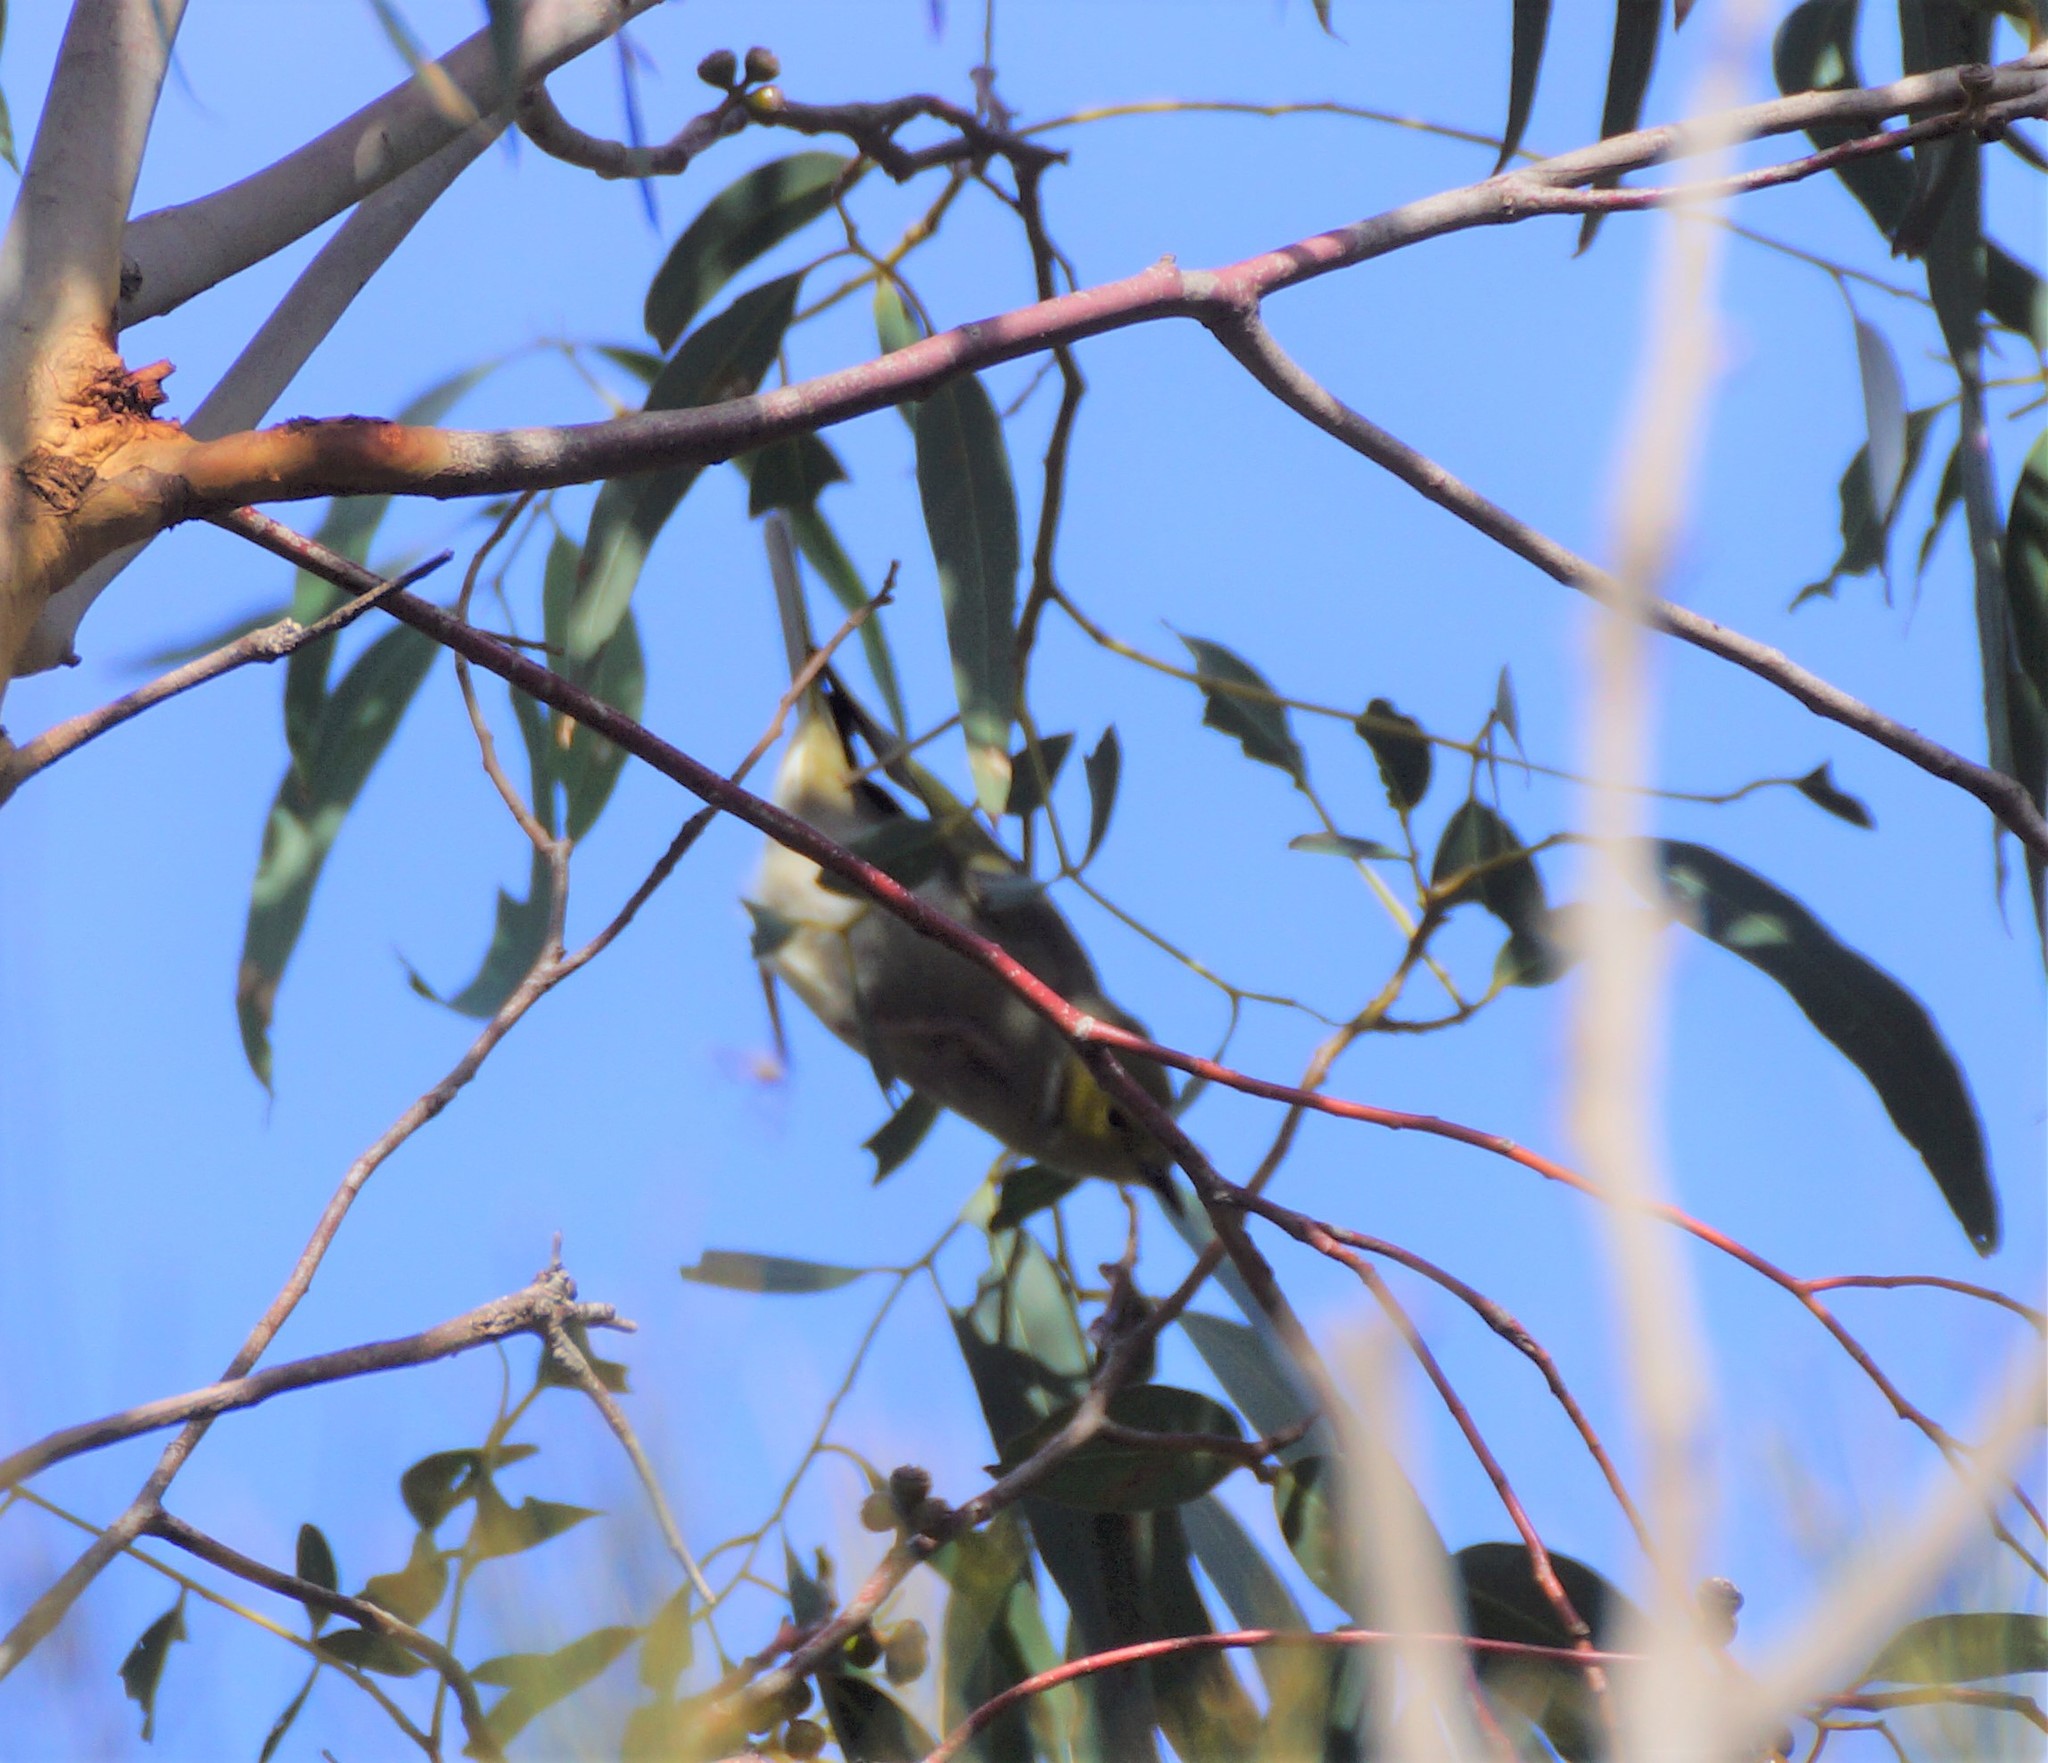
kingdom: Animalia
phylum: Chordata
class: Aves
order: Passeriformes
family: Meliphagidae
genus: Ptilotula
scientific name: Ptilotula penicillata
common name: White-plumed honeyeater
